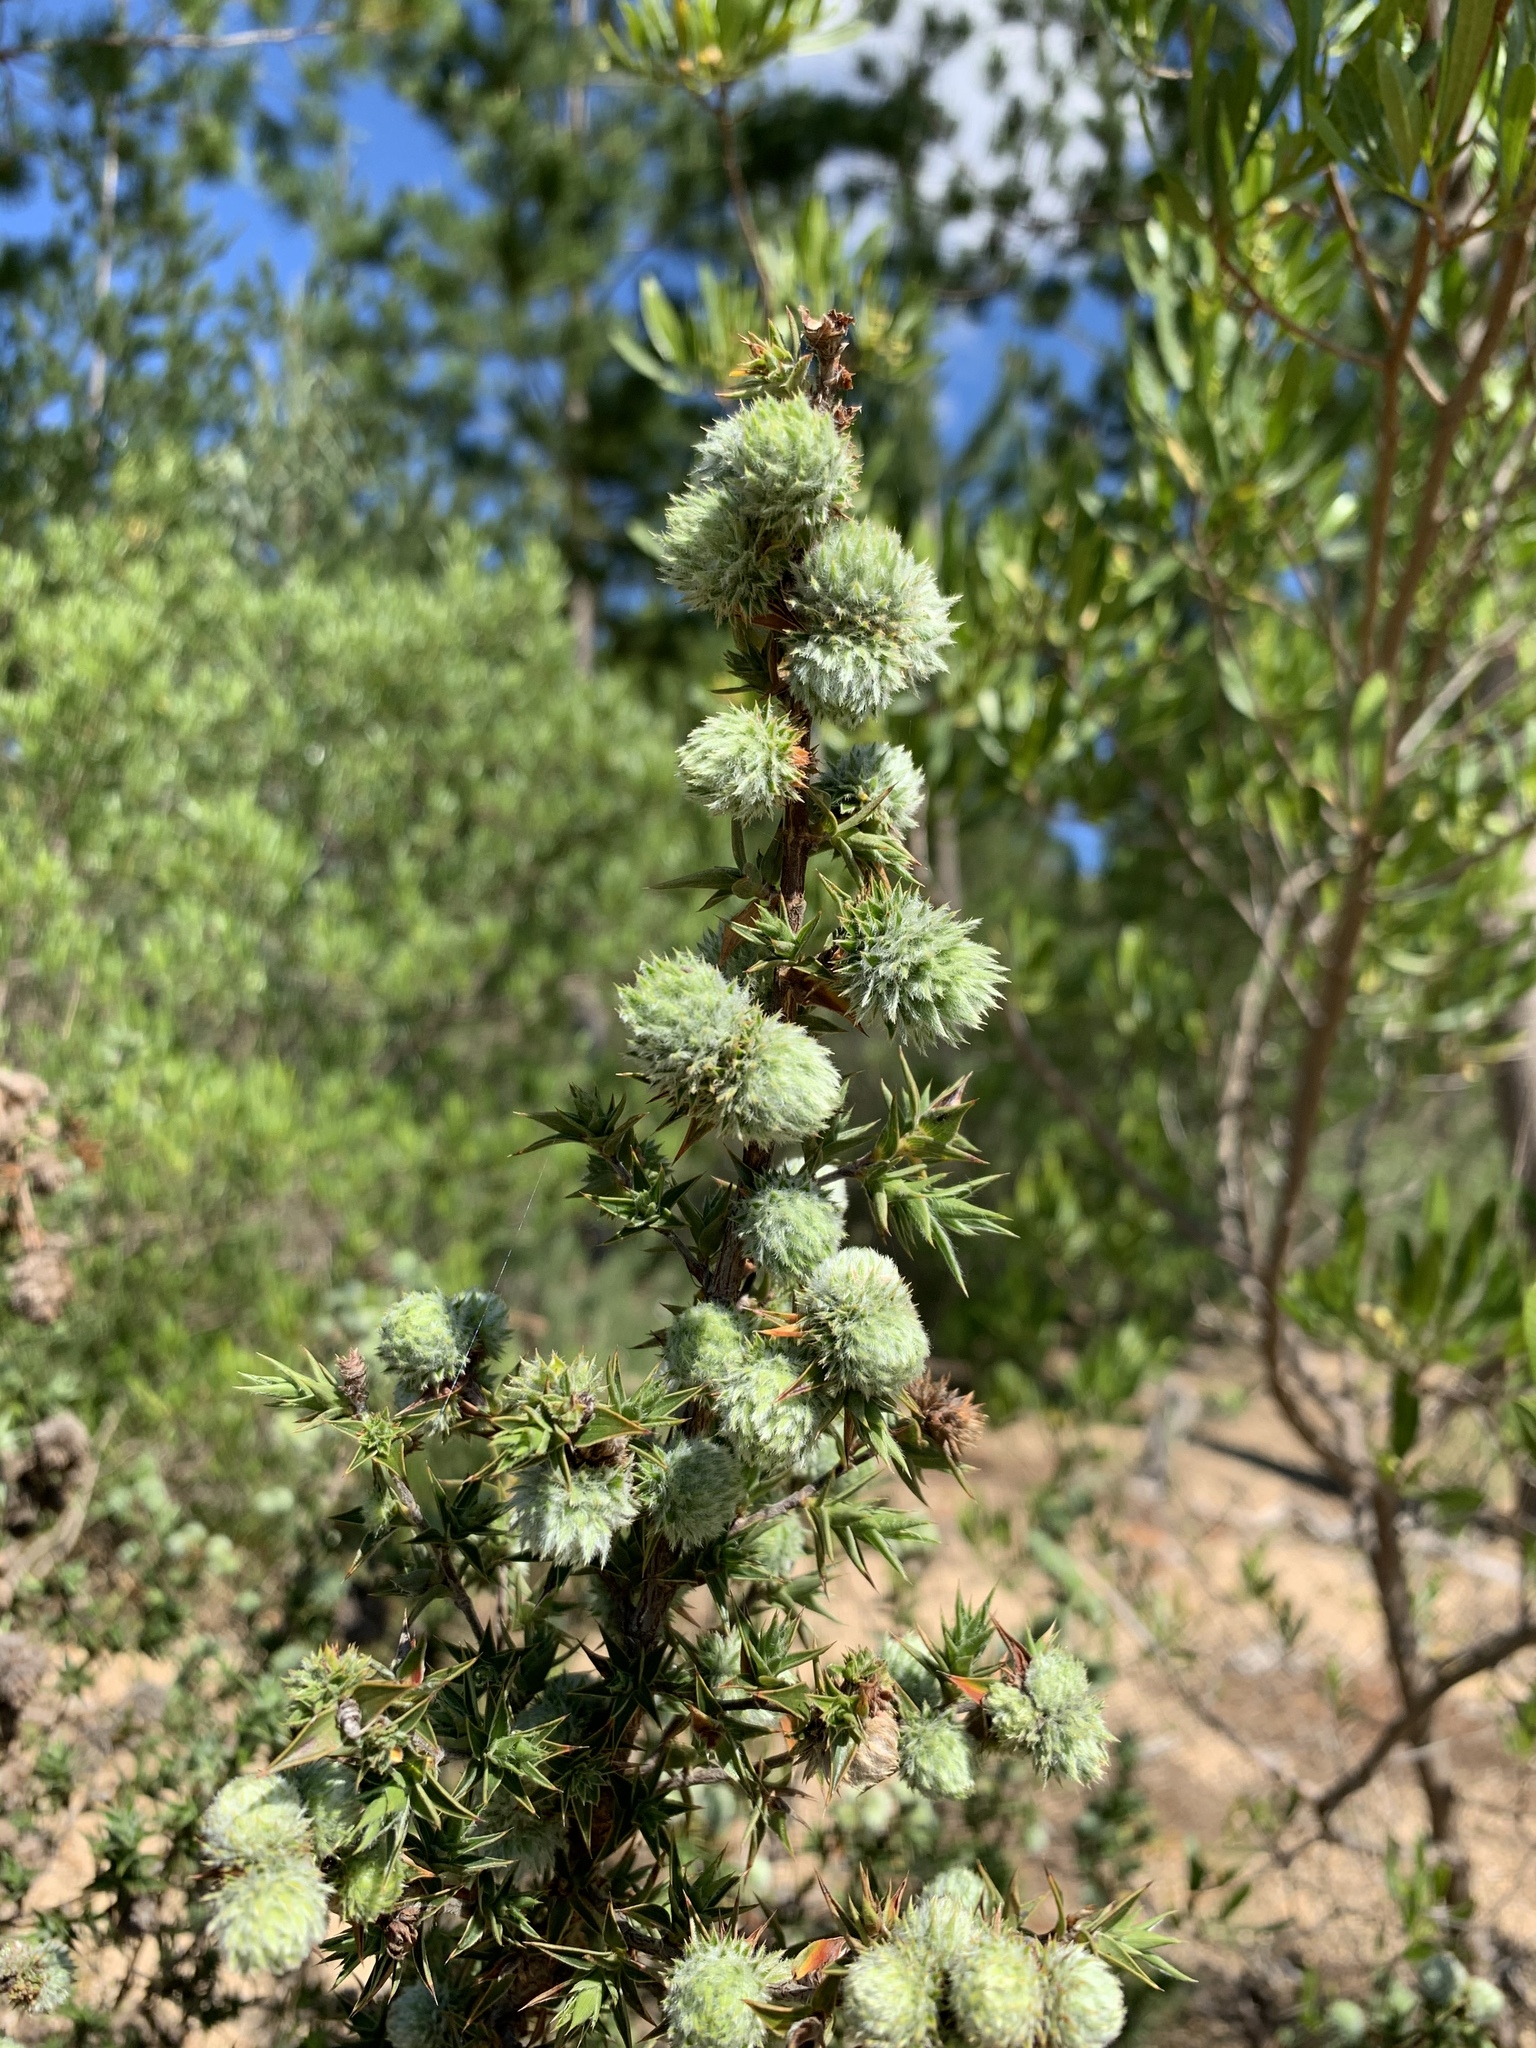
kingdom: Plantae
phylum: Tracheophyta
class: Magnoliopsida
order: Rosales
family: Rosaceae
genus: Cliffortia
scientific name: Cliffortia ruscifolia
